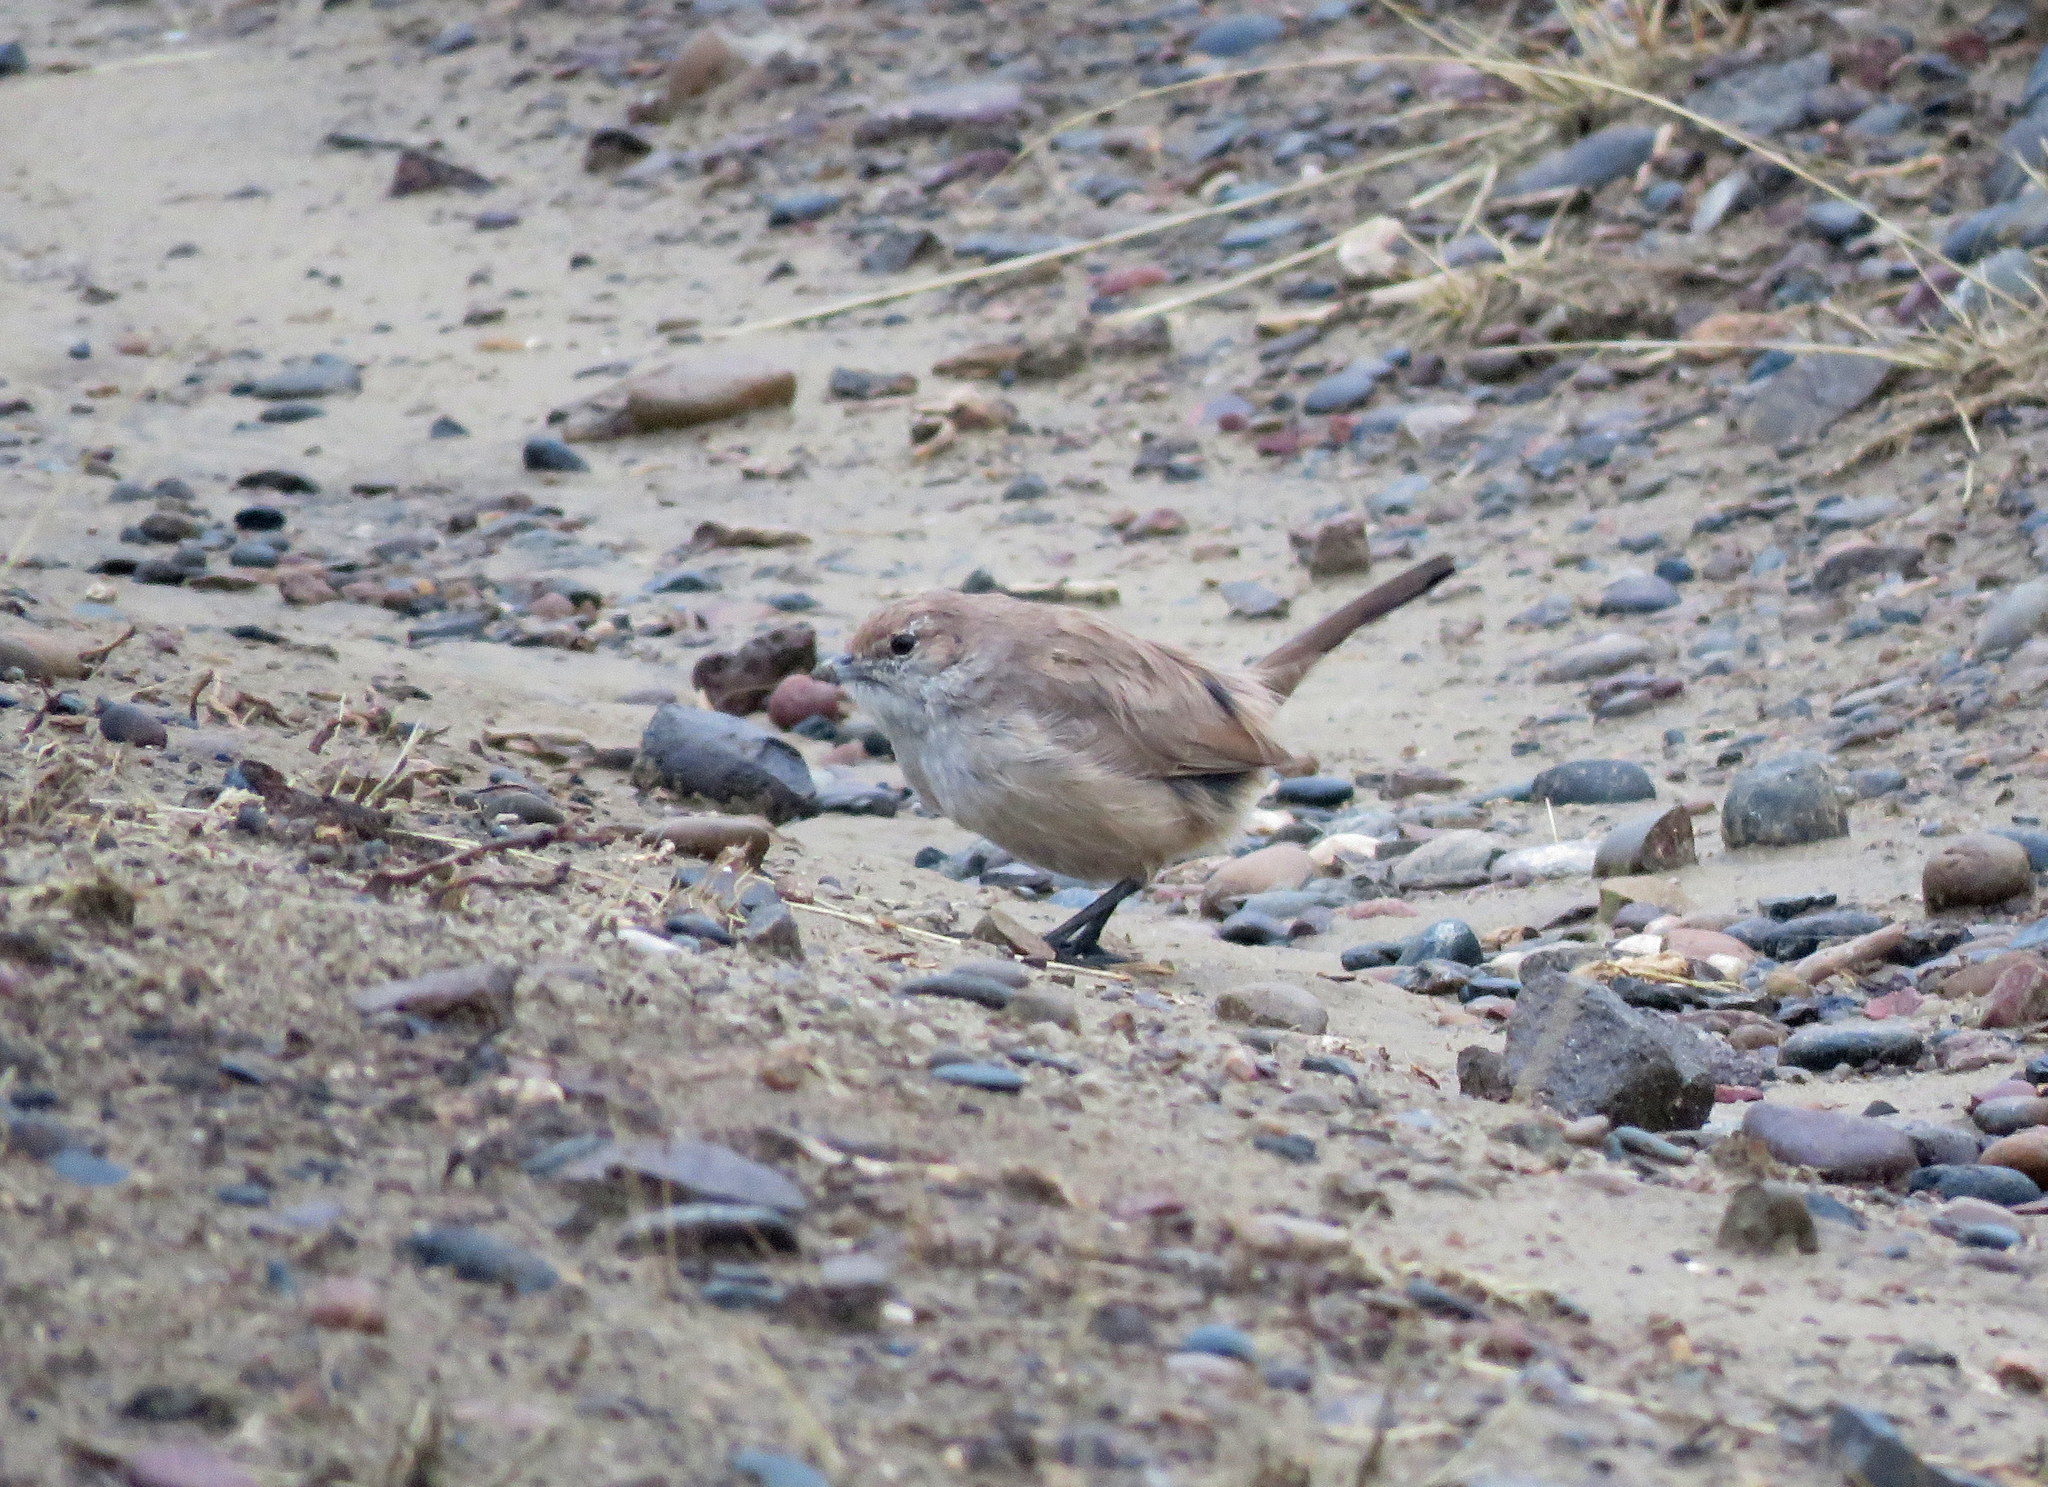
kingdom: Animalia
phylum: Chordata
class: Aves
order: Passeriformes
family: Rhinocryptidae
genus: Teledromas
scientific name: Teledromas fuscus
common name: Sandy gallito
